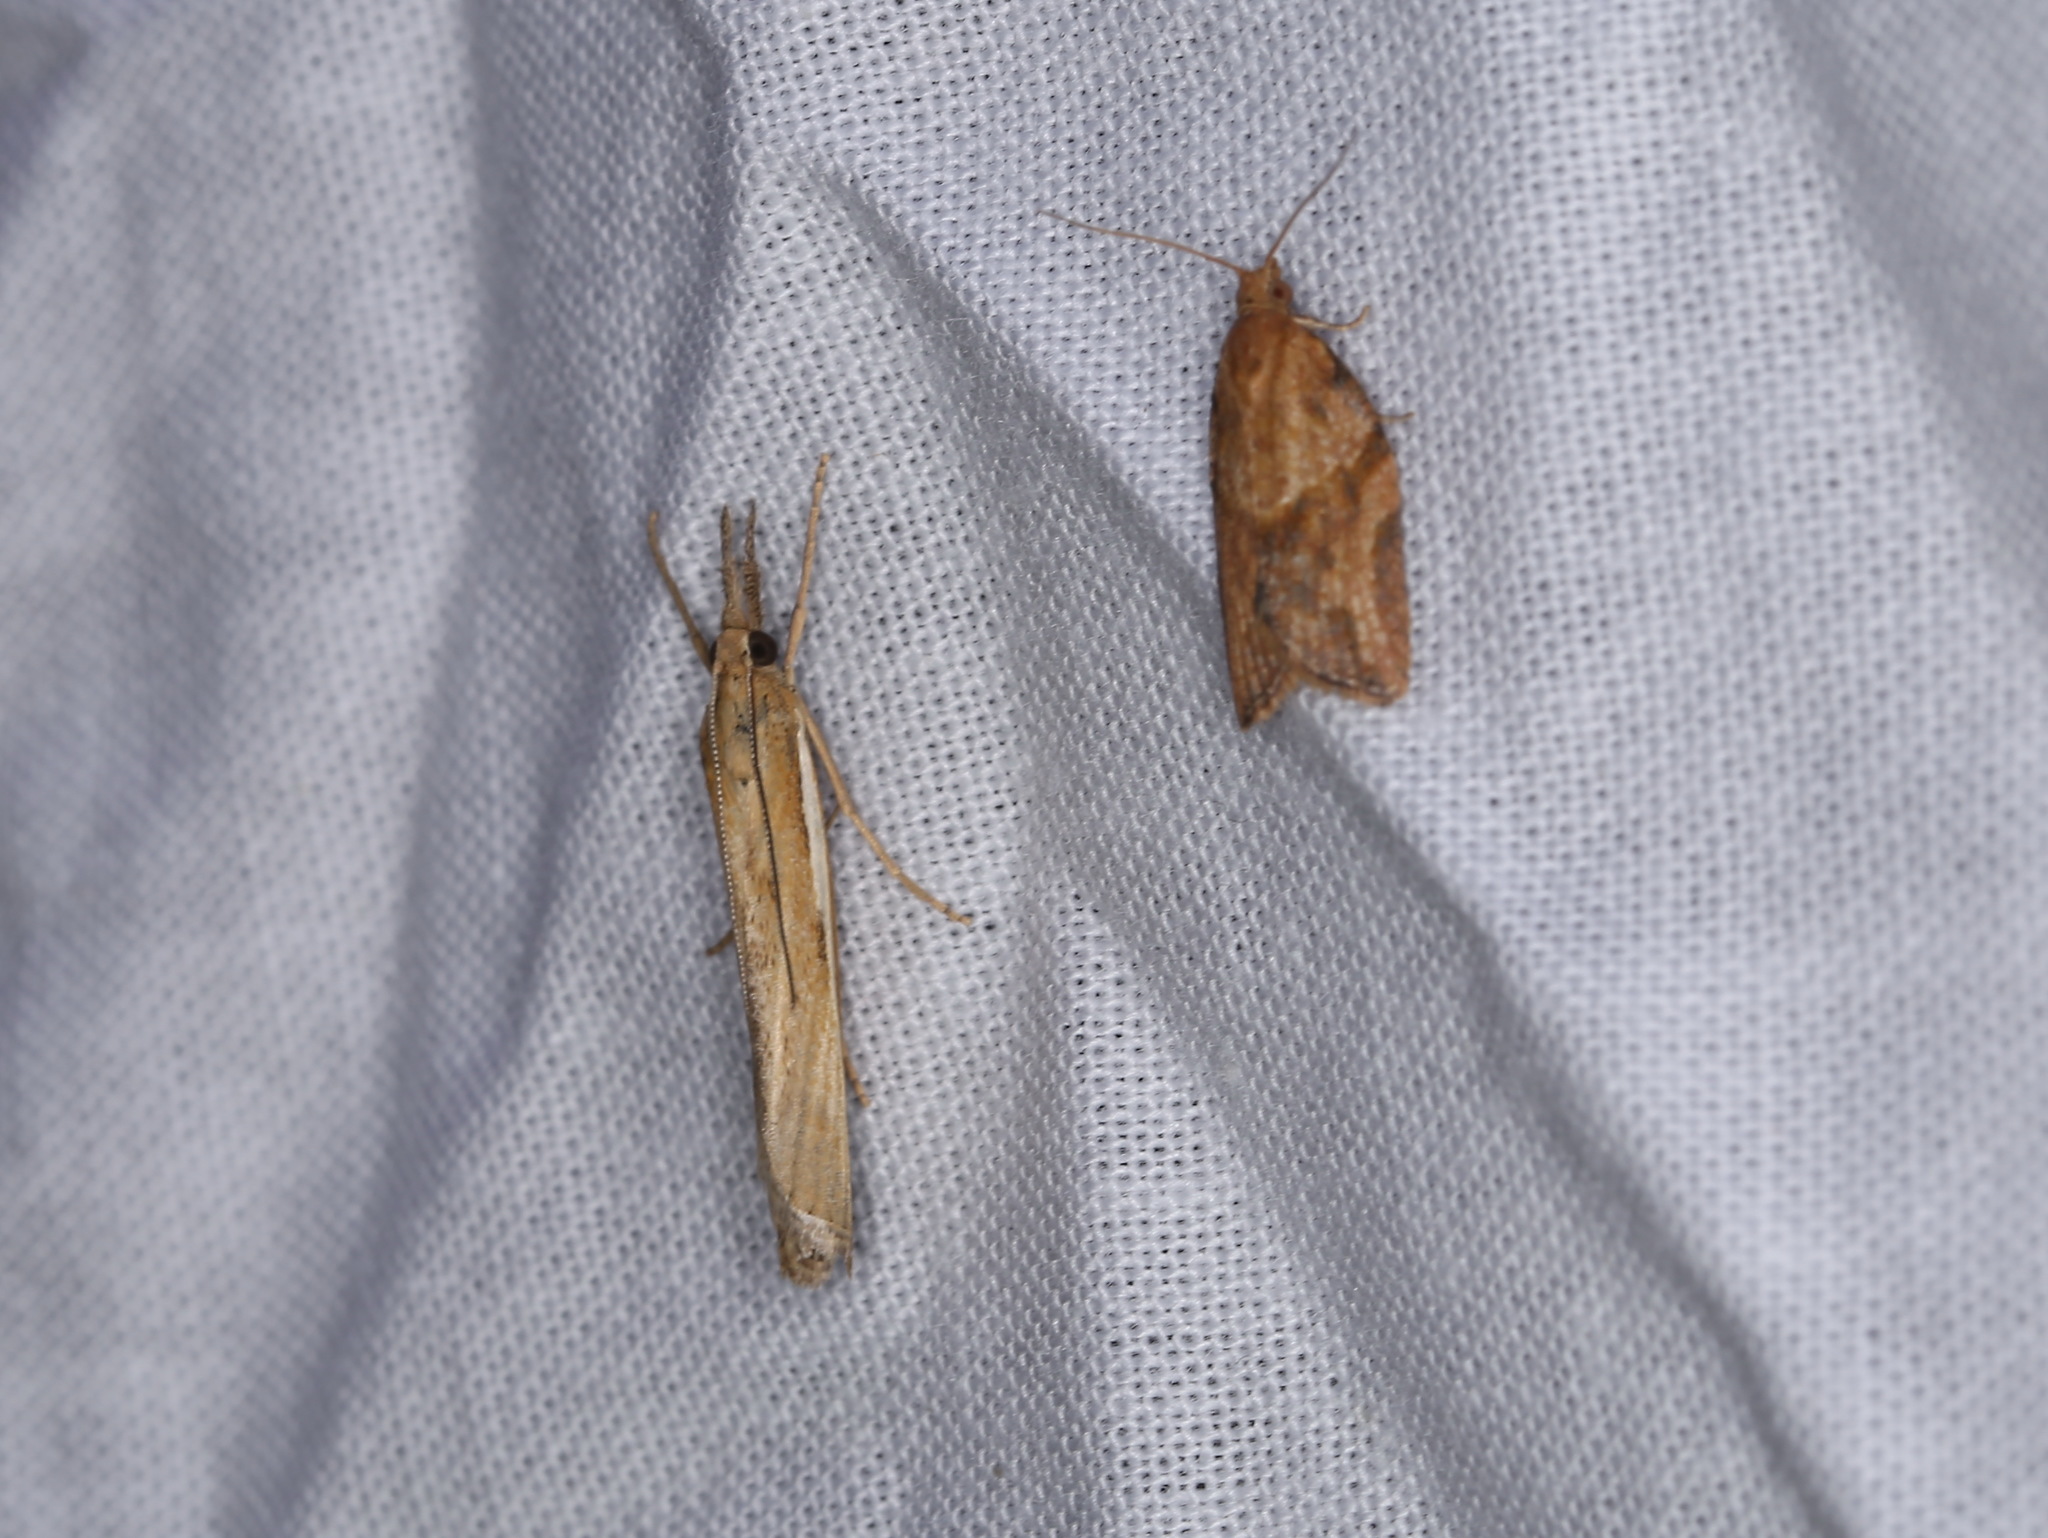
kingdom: Animalia
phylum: Arthropoda
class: Insecta
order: Lepidoptera
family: Tortricidae
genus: Epiphyas
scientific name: Epiphyas postvittana
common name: Light brown apple moth
